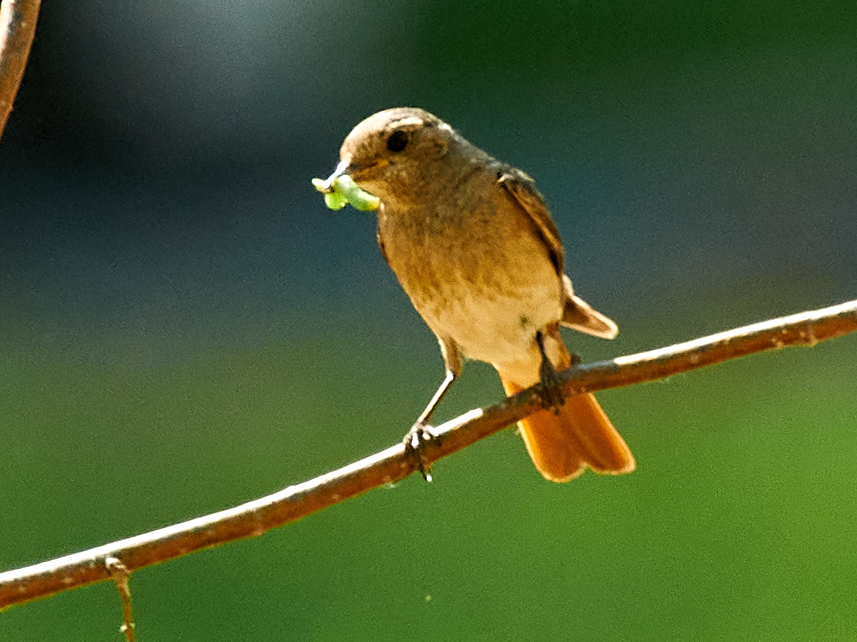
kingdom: Animalia
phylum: Chordata
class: Aves
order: Passeriformes
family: Muscicapidae
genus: Phoenicurus
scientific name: Phoenicurus phoenicurus
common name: Common redstart
